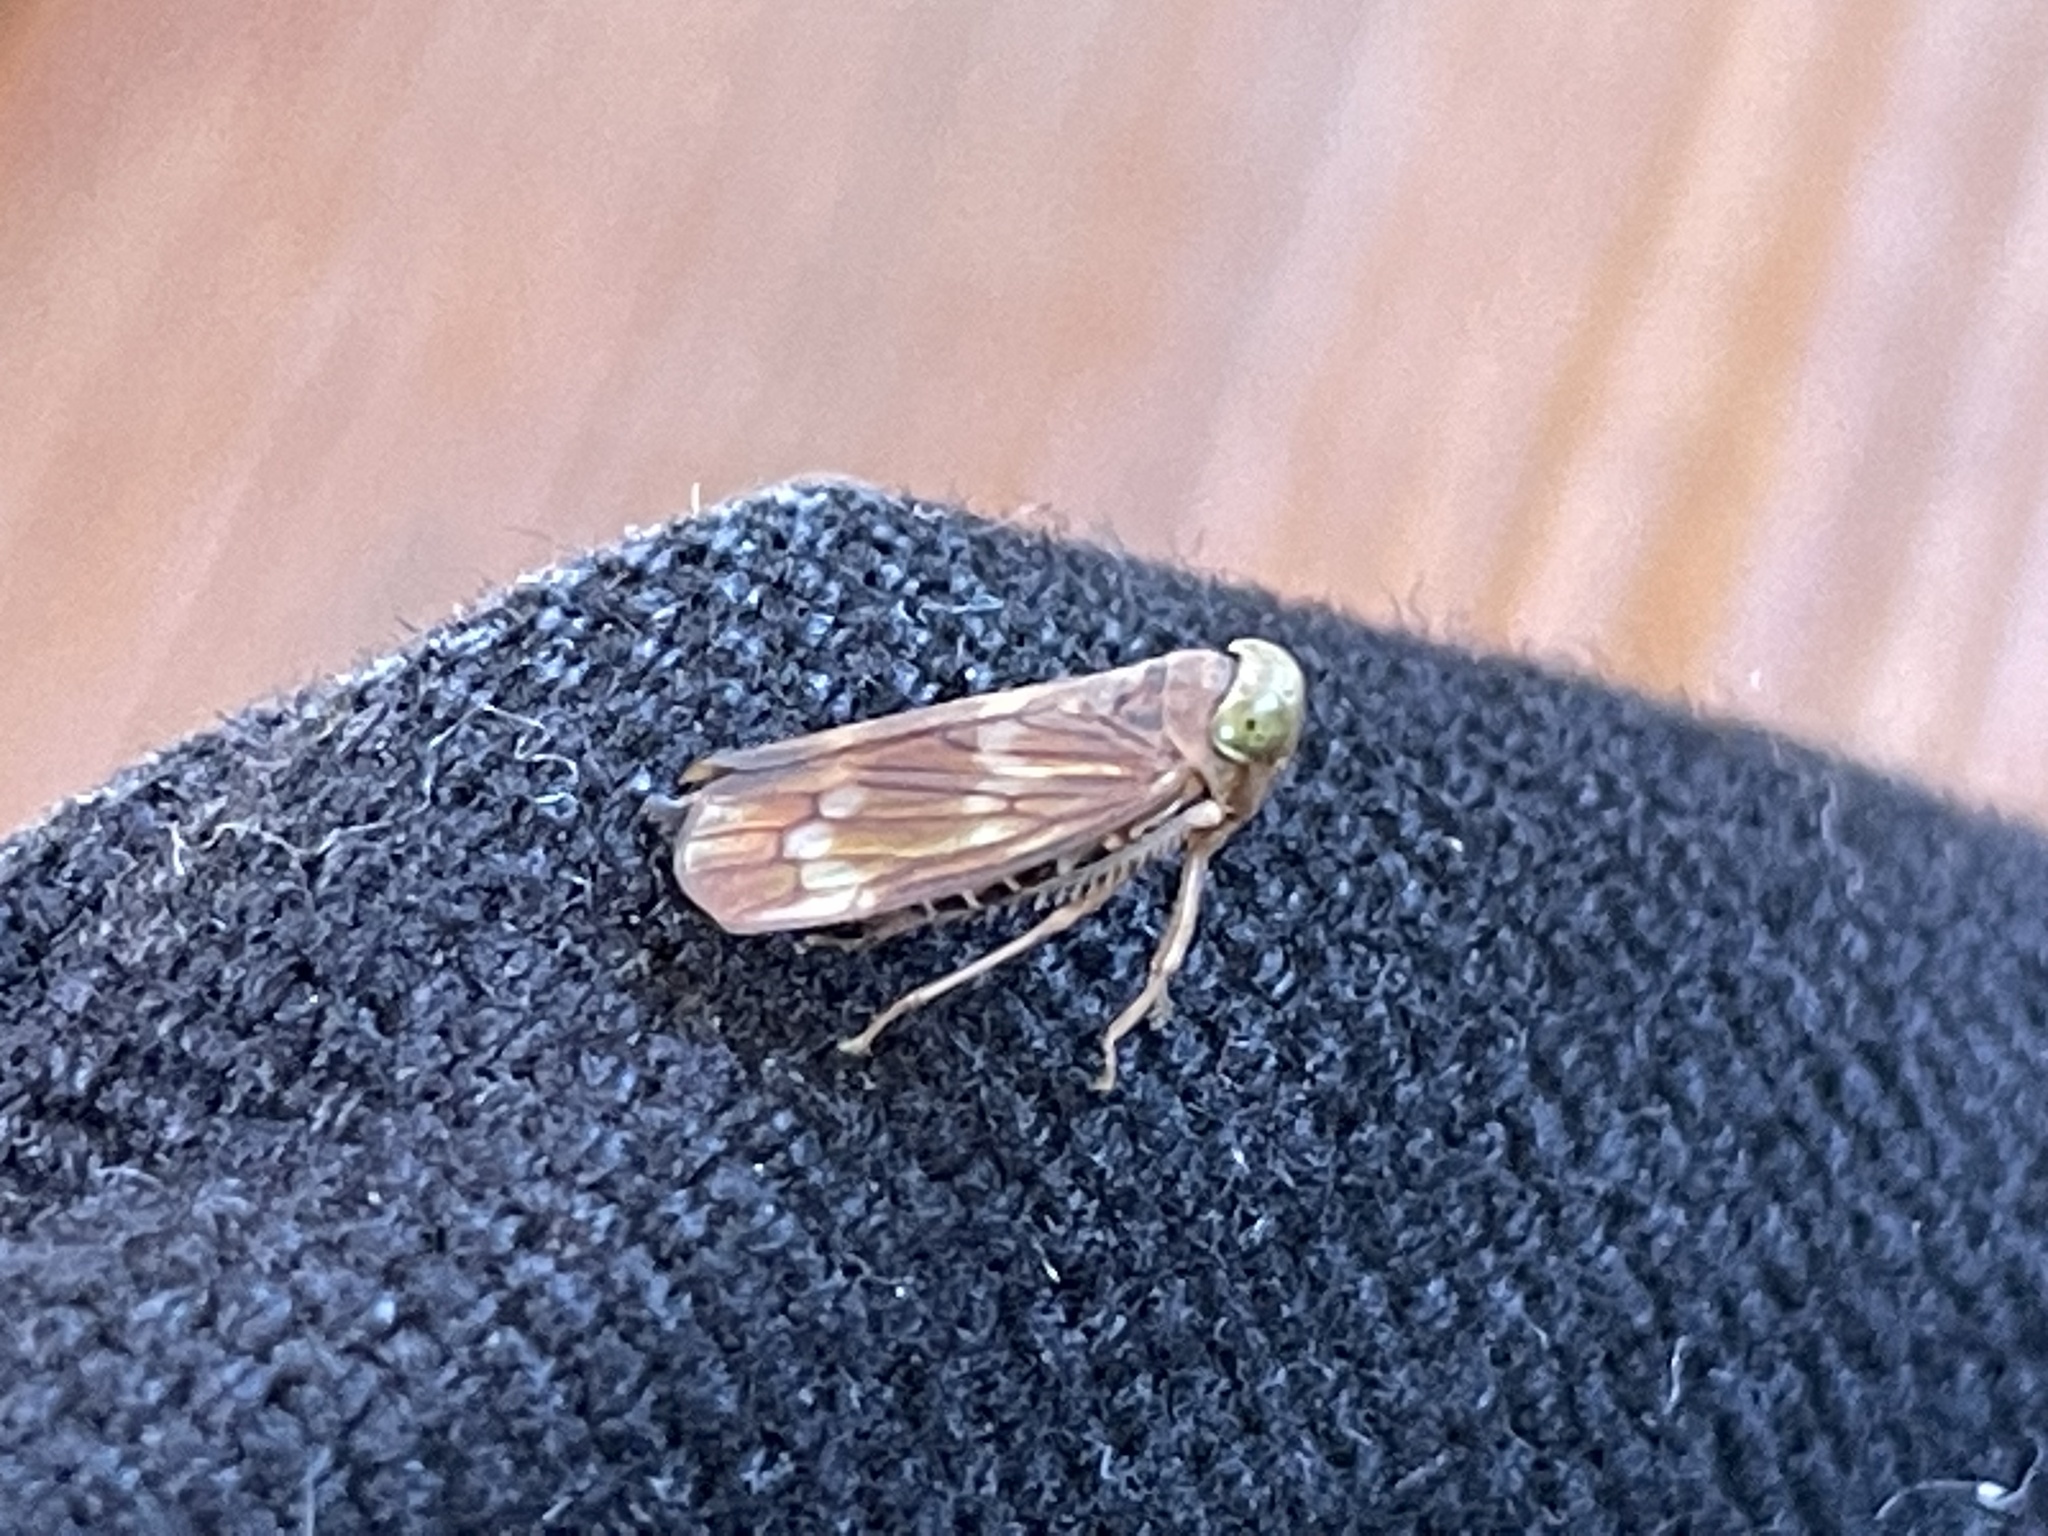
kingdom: Animalia
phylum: Arthropoda
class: Insecta
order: Hemiptera
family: Cicadellidae
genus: Jikradia
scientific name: Jikradia olitoria
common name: Coppery leafhopper
